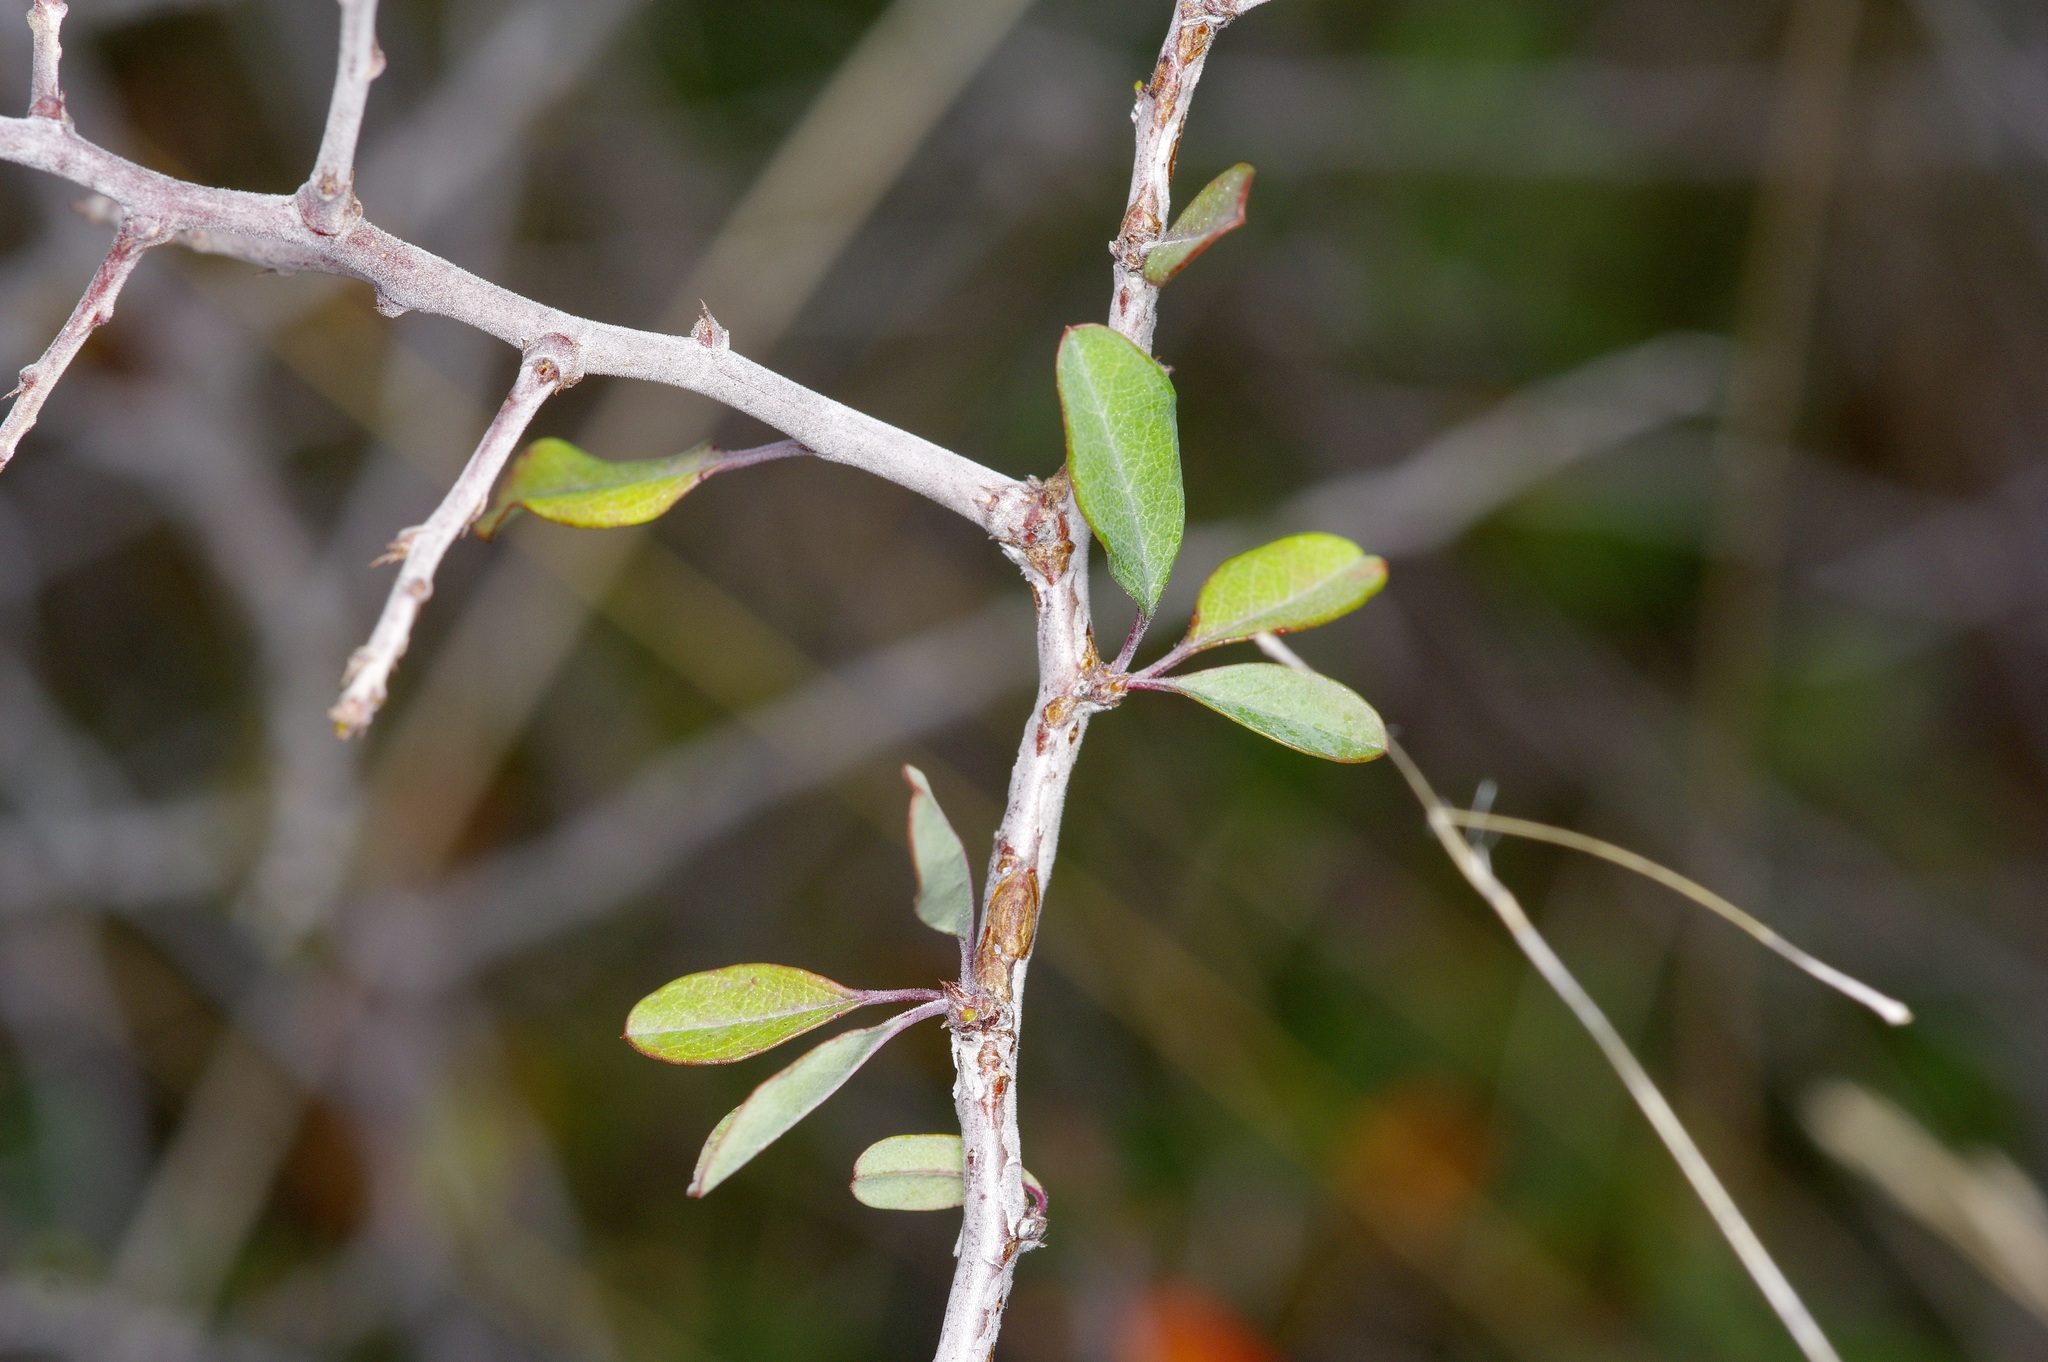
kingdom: Plantae
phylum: Tracheophyta
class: Magnoliopsida
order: Rosales
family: Rosaceae
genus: Prunus
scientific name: Prunus minutiflora
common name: Texas almond
